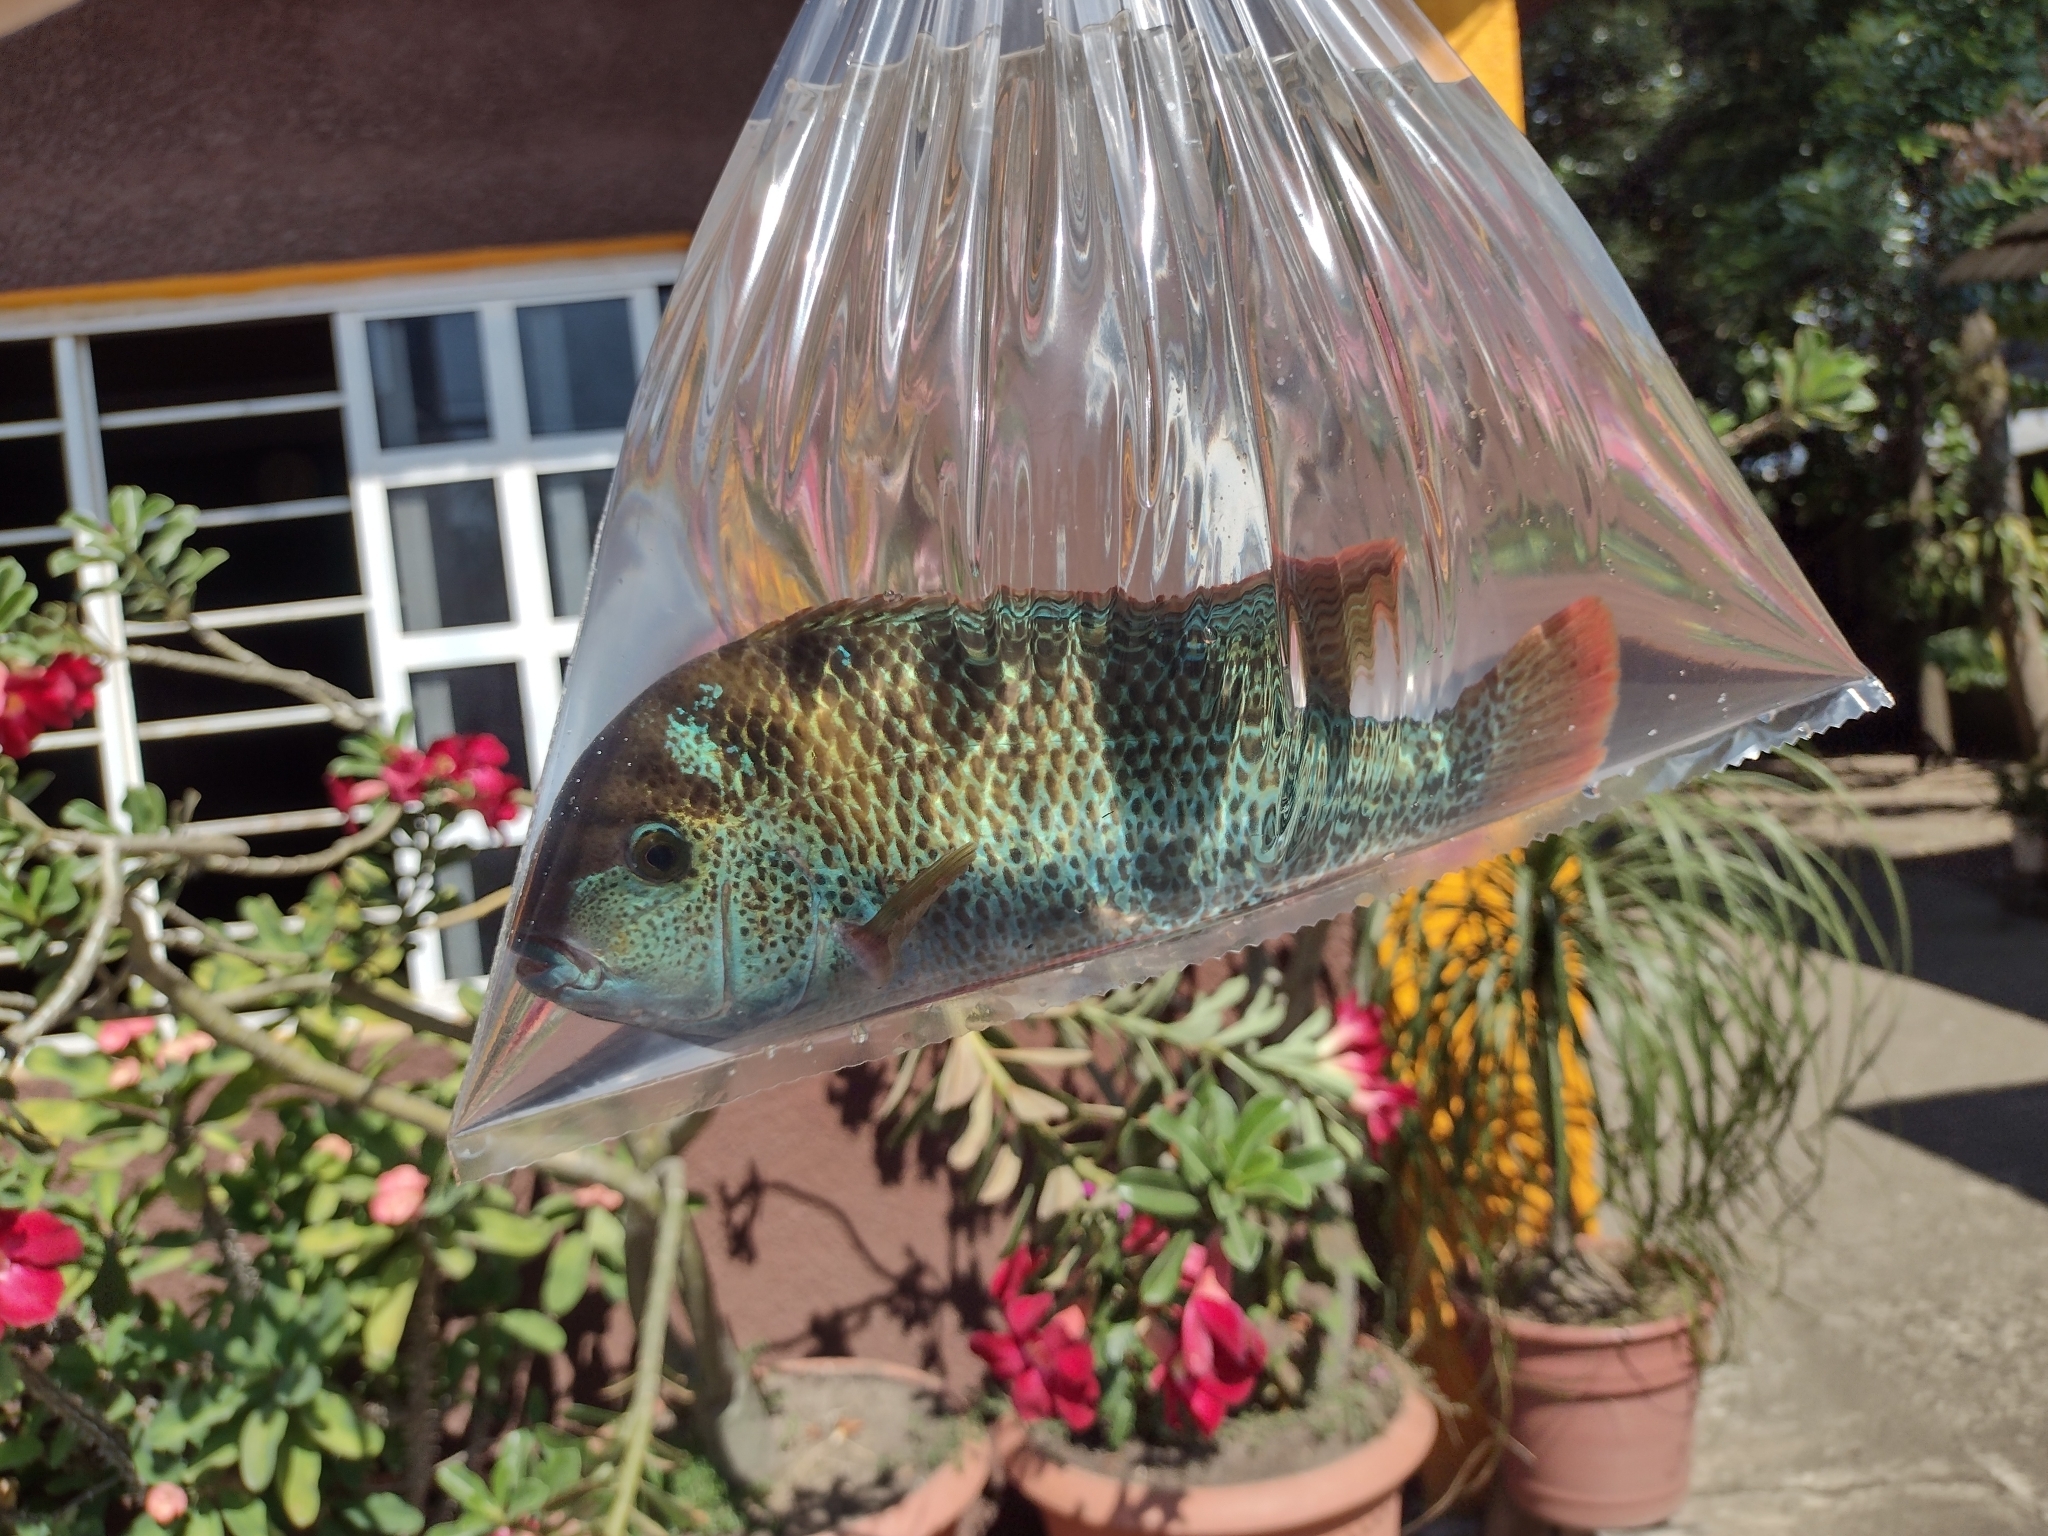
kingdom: Animalia
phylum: Chordata
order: Perciformes
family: Cichlidae
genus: Vieja
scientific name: Vieja guttulata
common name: Amatitlan cichlid
